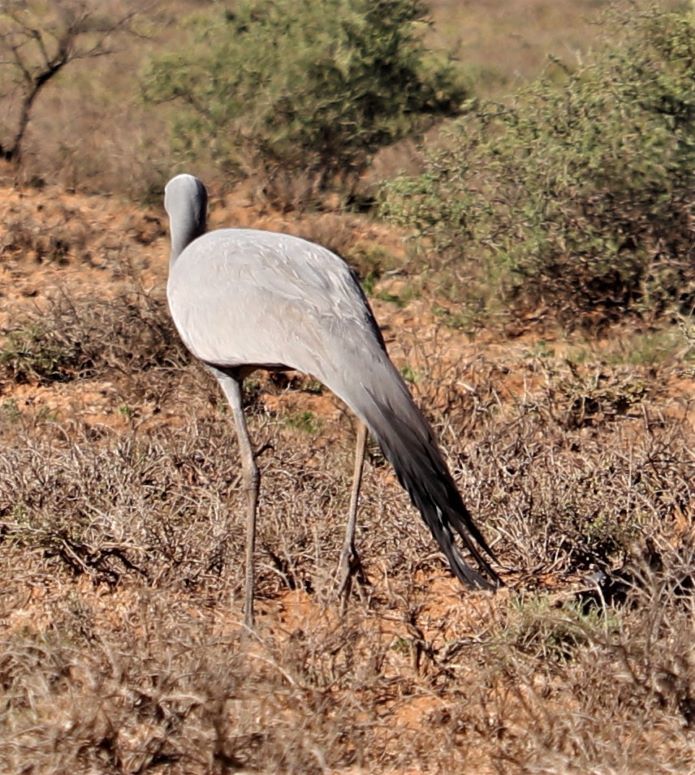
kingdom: Animalia
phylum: Chordata
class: Aves
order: Gruiformes
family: Gruidae
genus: Anthropoides
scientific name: Anthropoides paradiseus
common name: Blue crane
